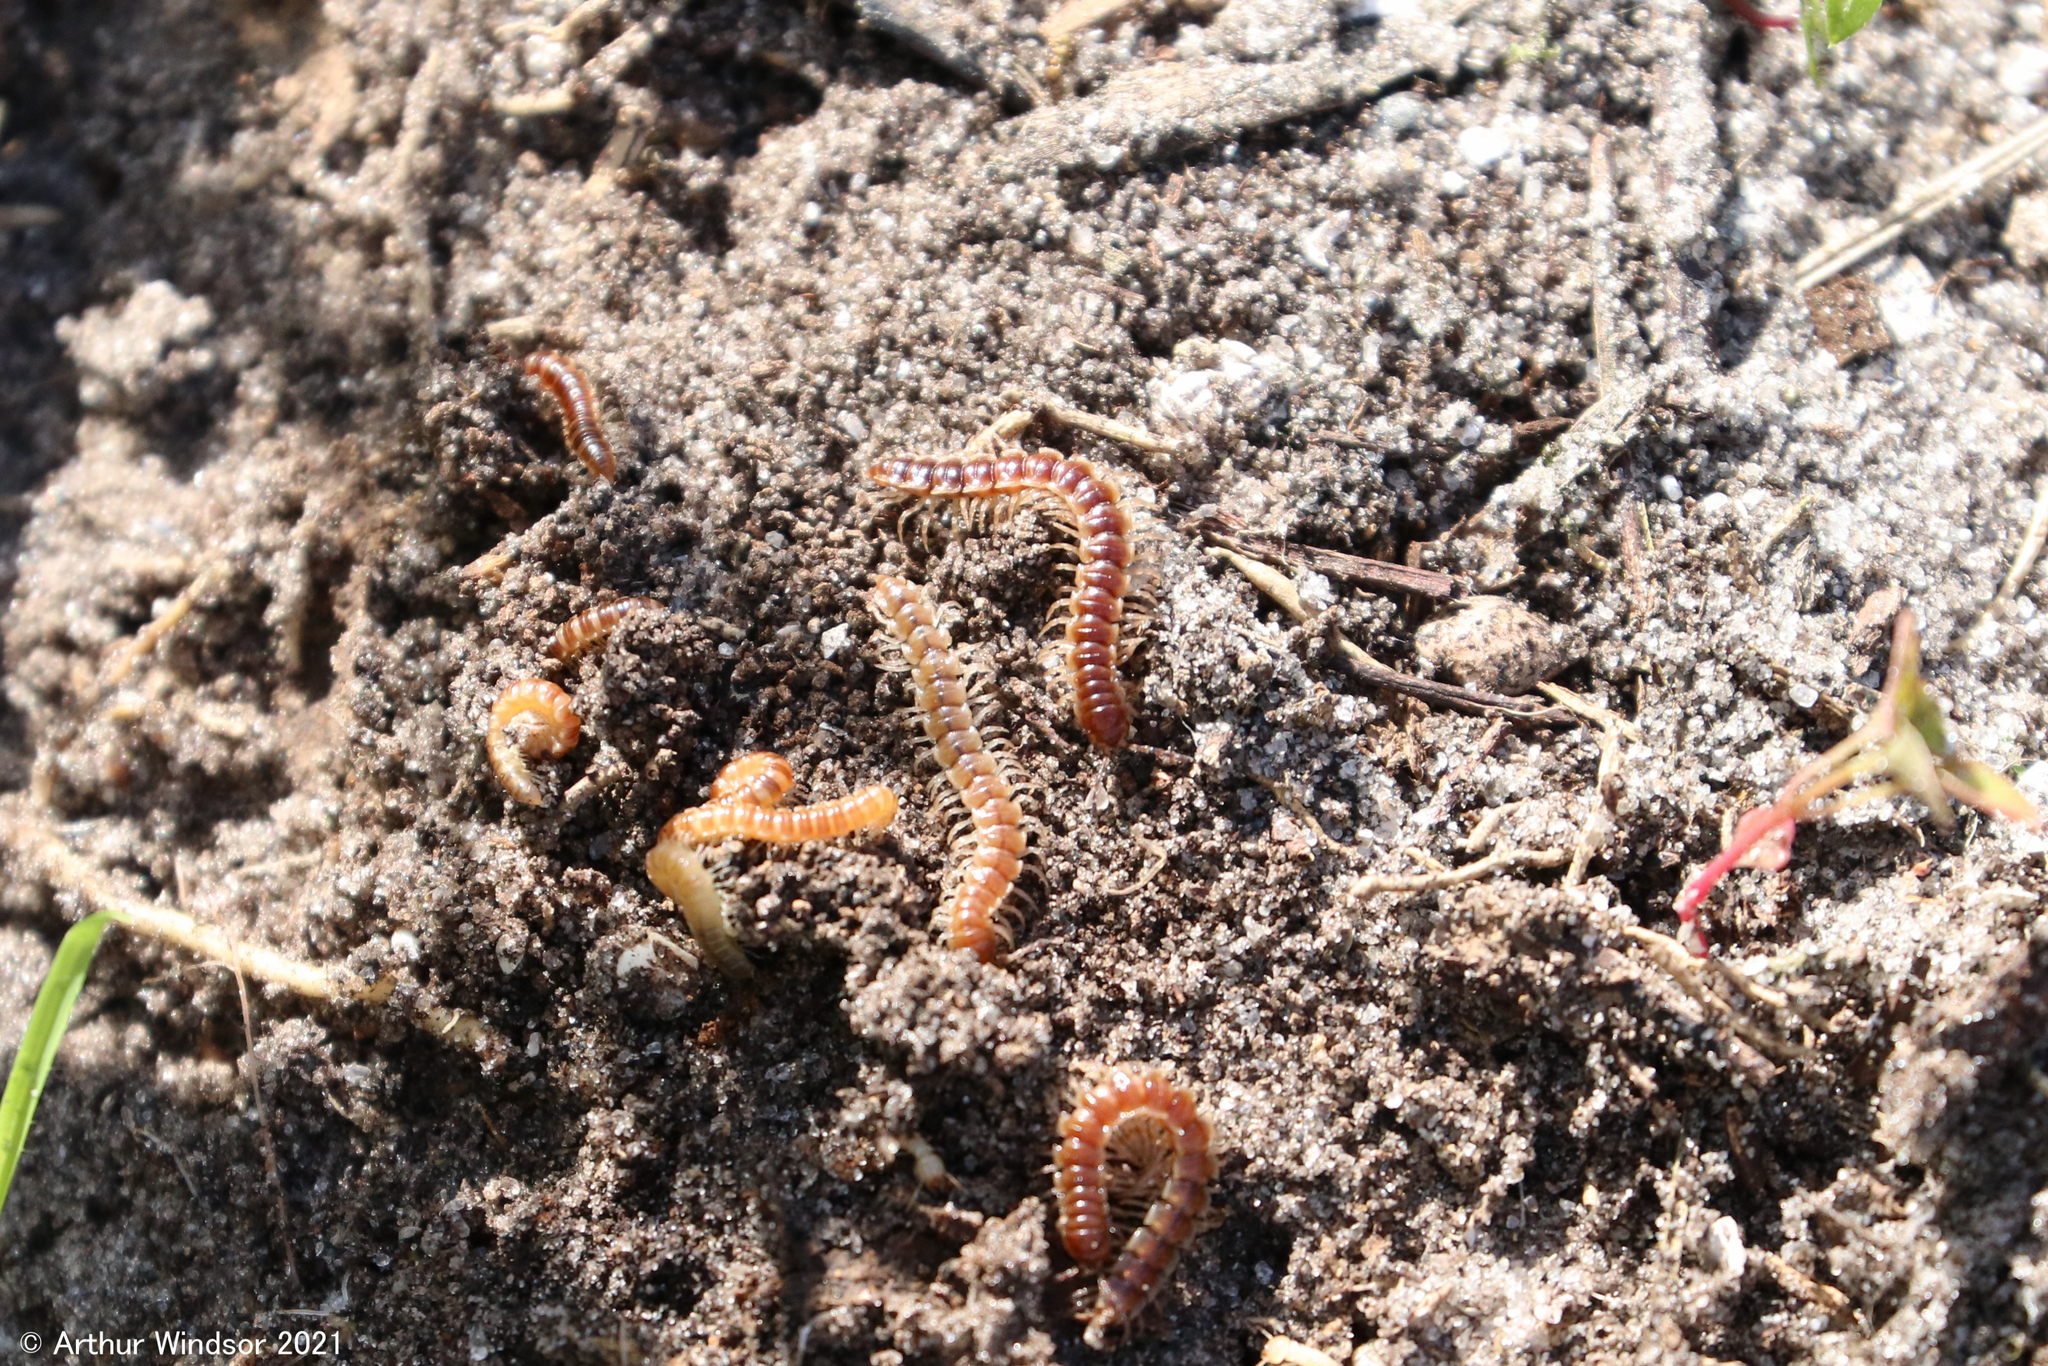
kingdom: Animalia
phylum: Arthropoda
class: Diplopoda
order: Polydesmida
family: Paradoxosomatidae
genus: Oxidus
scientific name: Oxidus gracilis
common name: Greenhouse millipede
